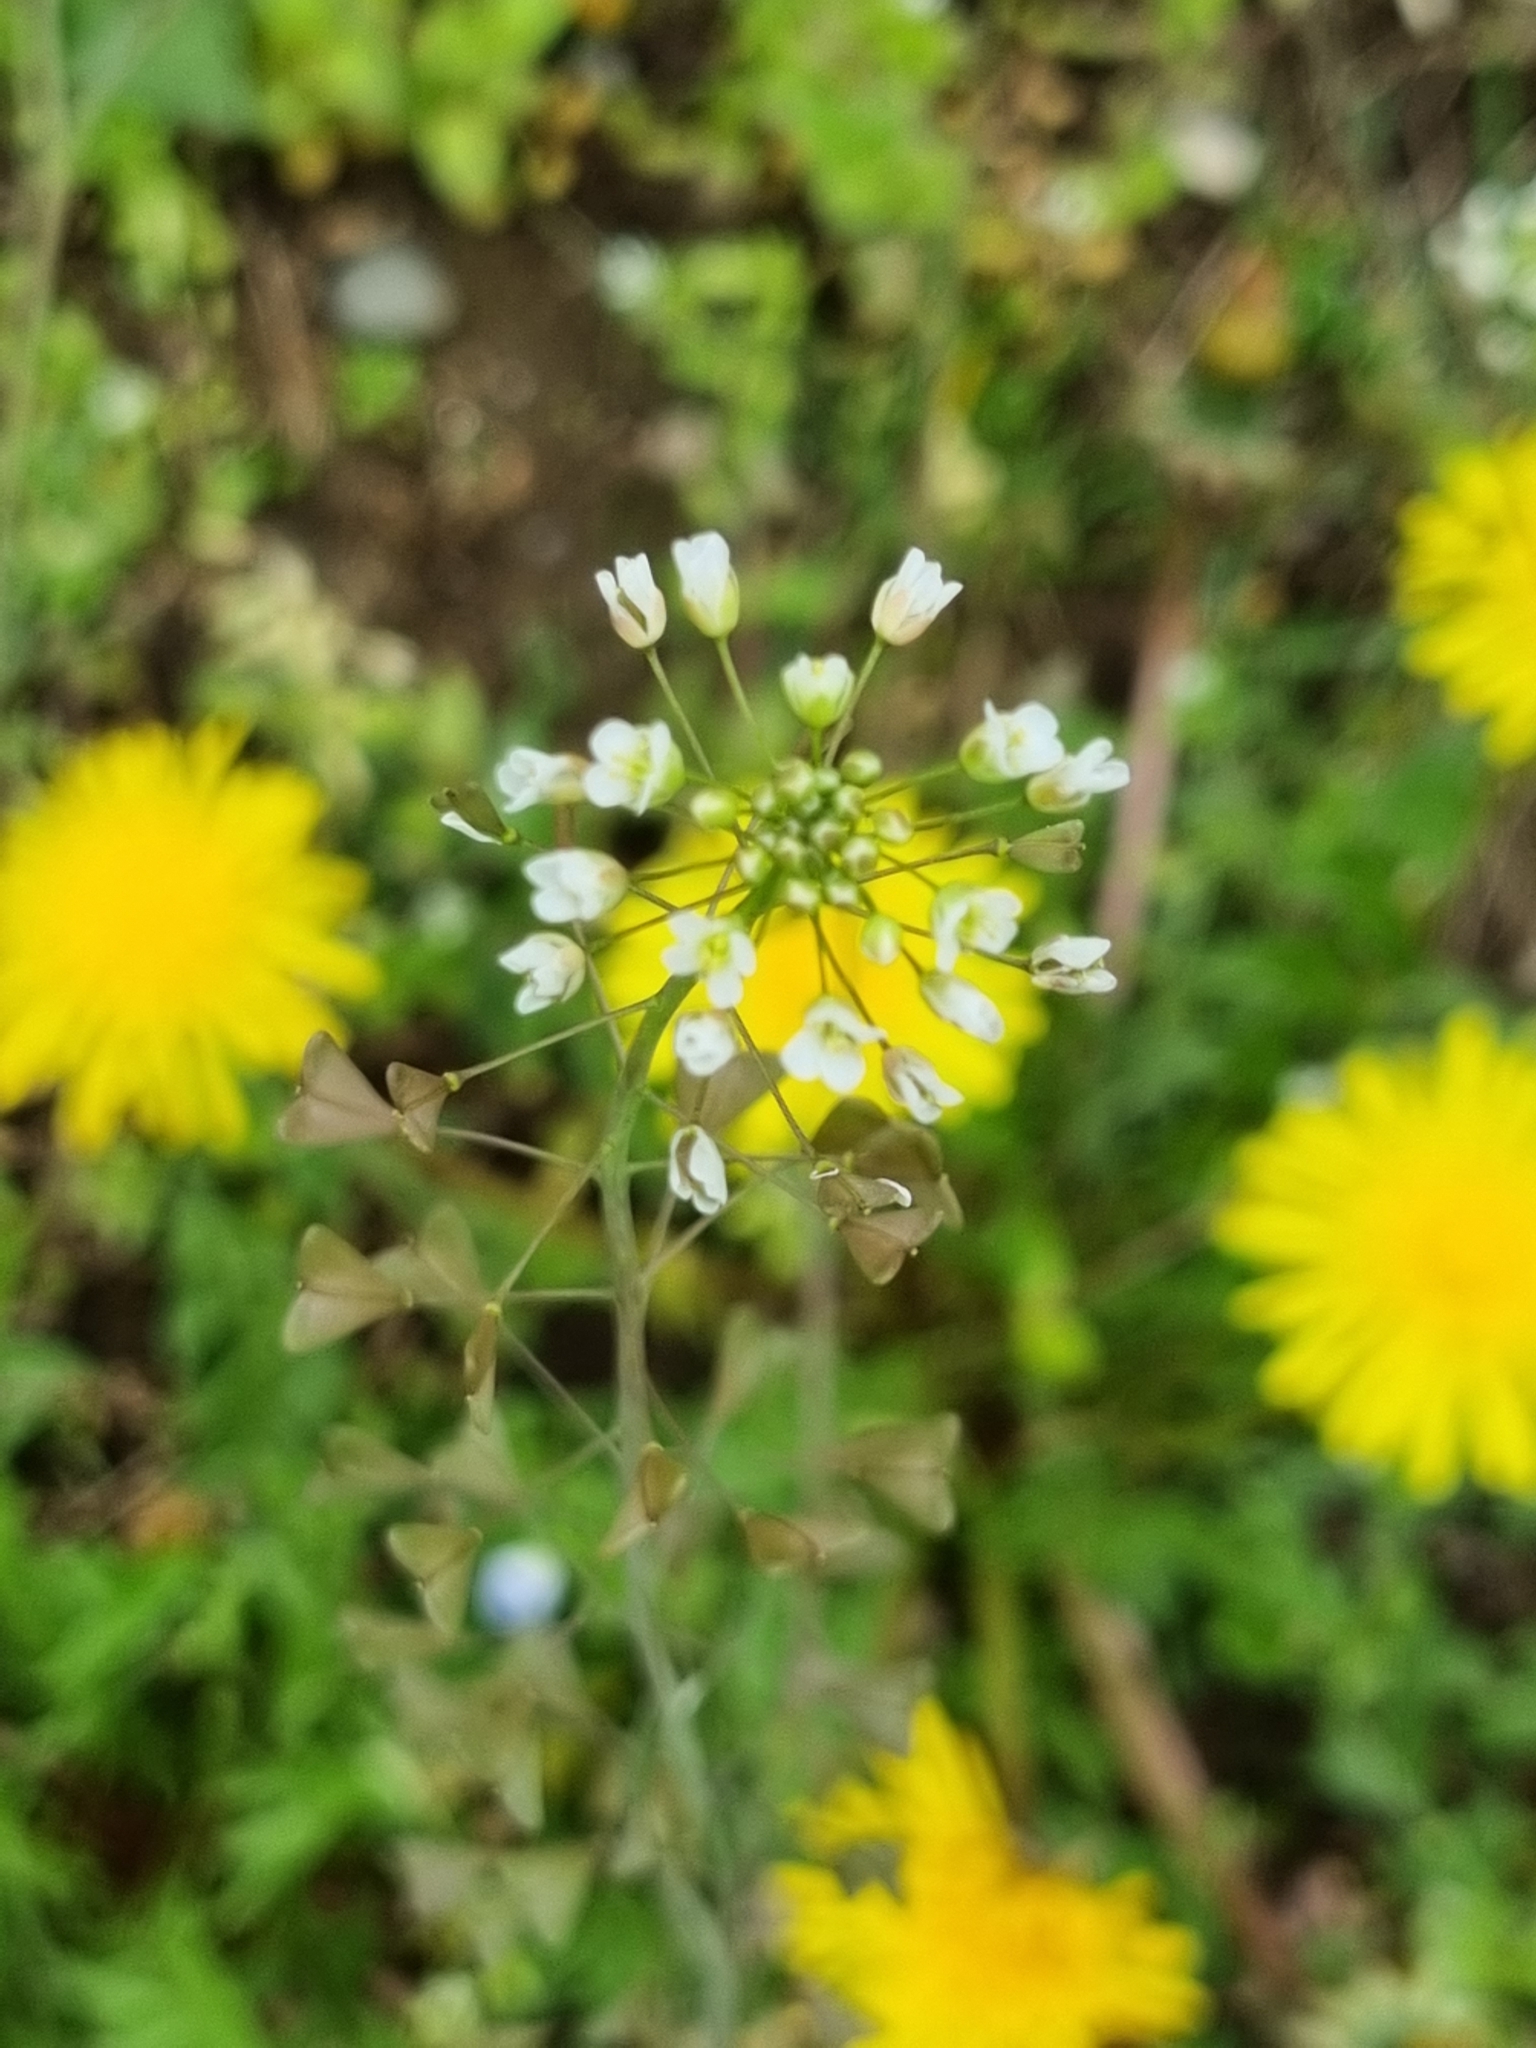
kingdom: Plantae
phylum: Tracheophyta
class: Magnoliopsida
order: Brassicales
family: Brassicaceae
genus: Capsella
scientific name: Capsella bursa-pastoris
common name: Shepherd's purse
